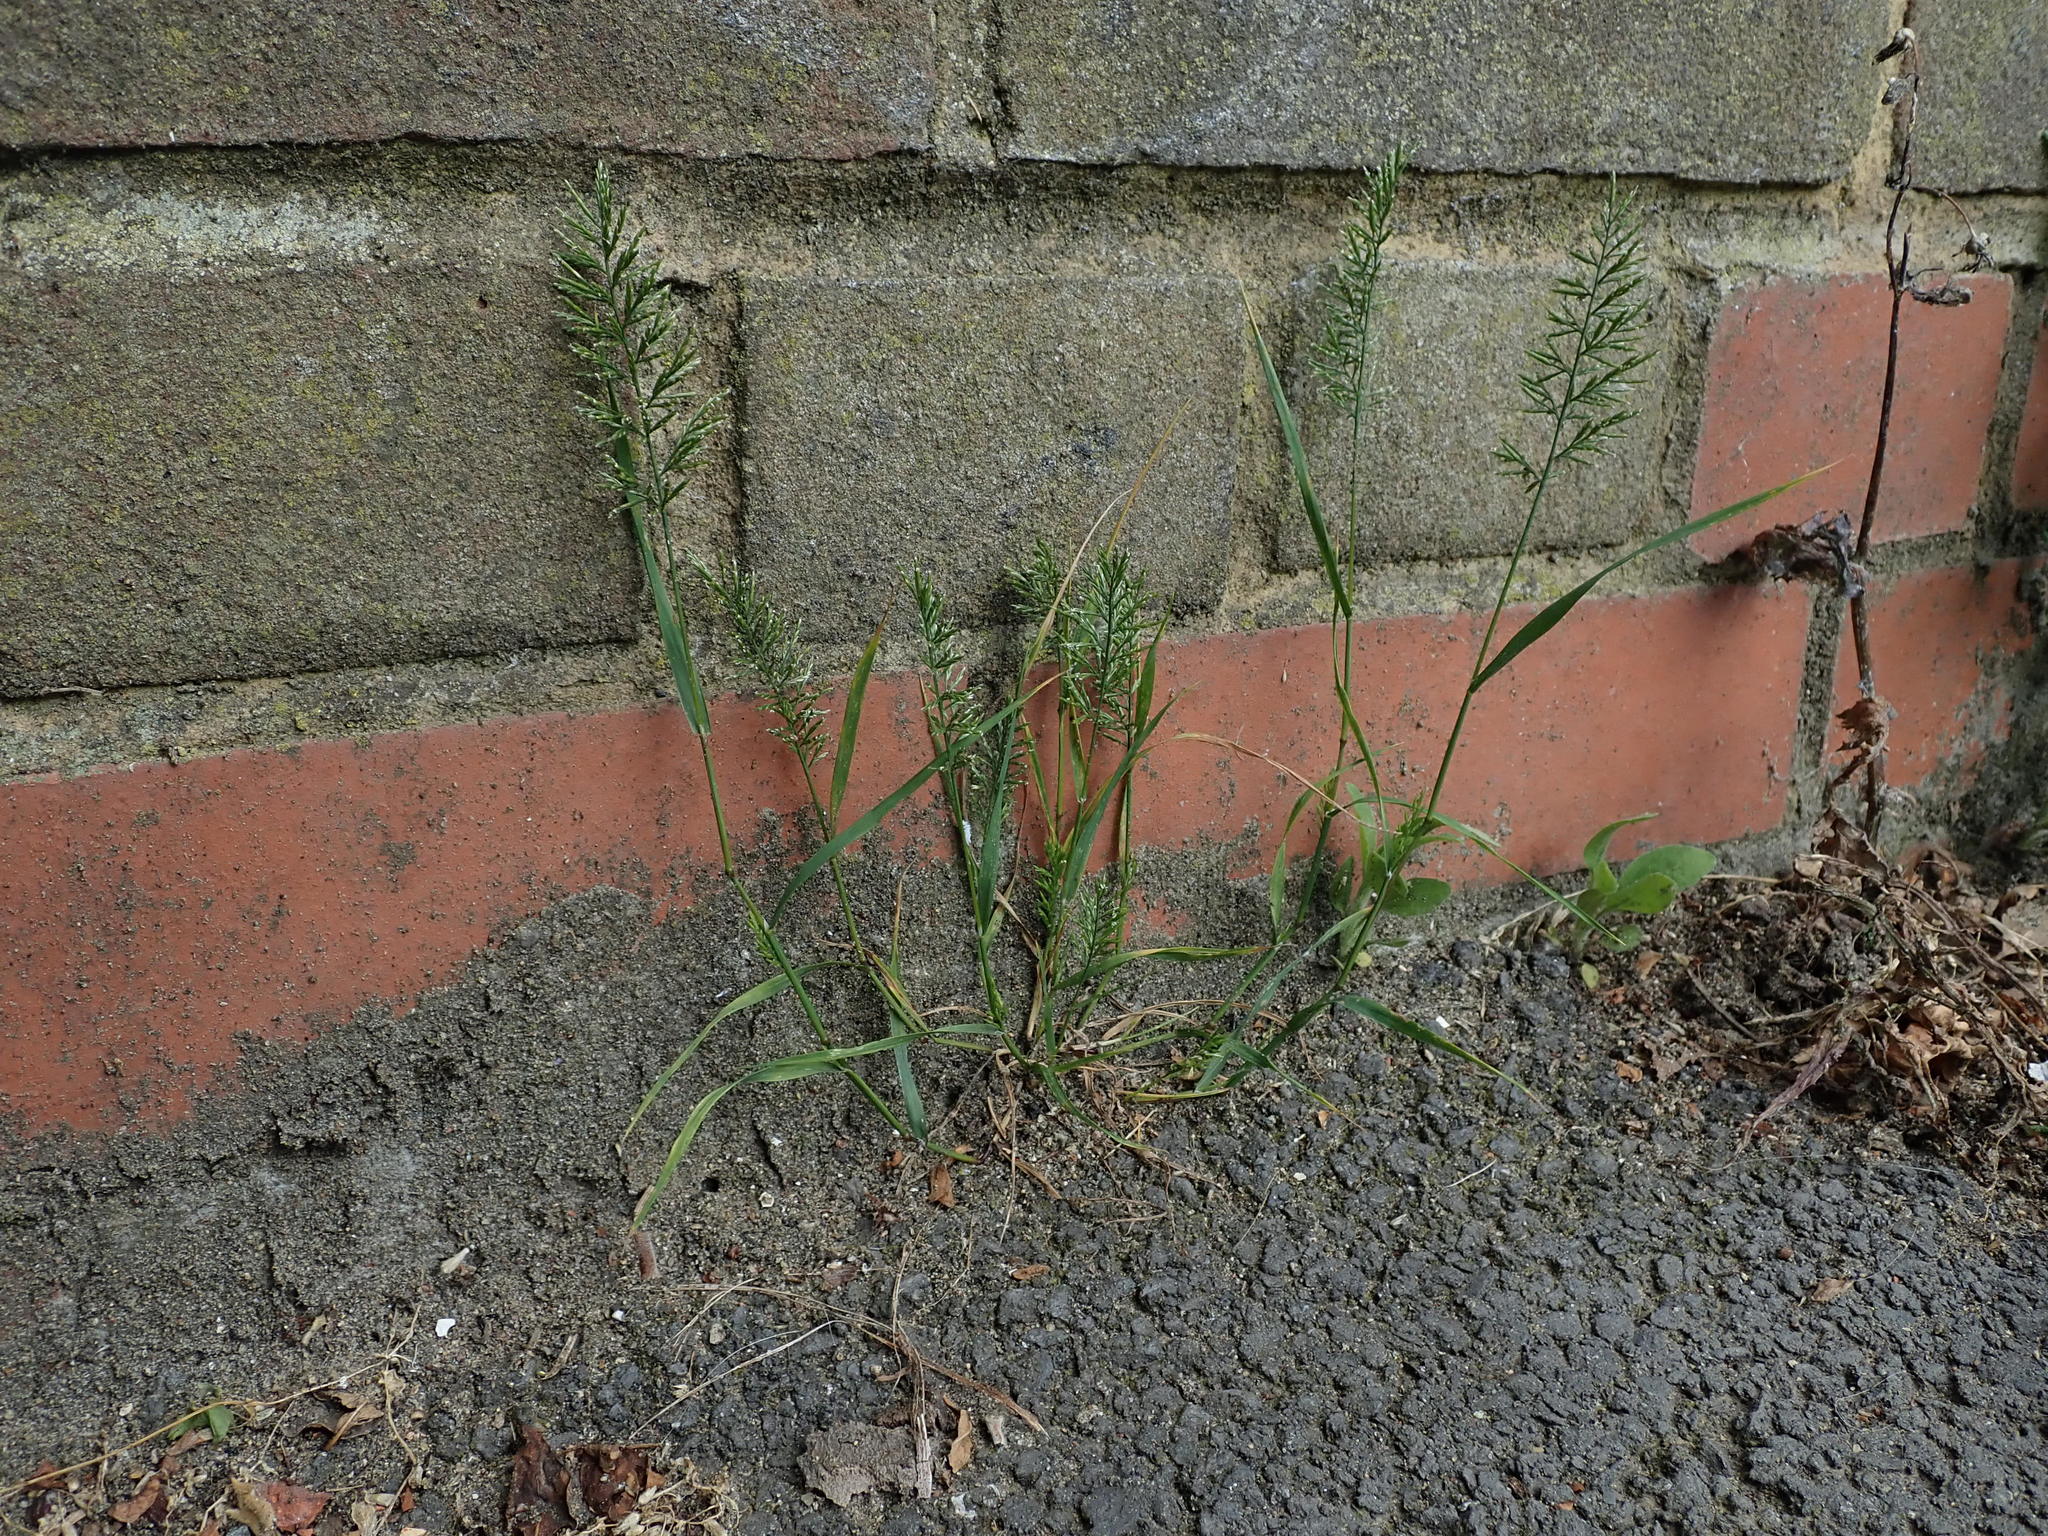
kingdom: Plantae
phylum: Tracheophyta
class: Liliopsida
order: Poales
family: Poaceae
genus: Catapodium
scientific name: Catapodium rigidum
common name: Fern-grass
